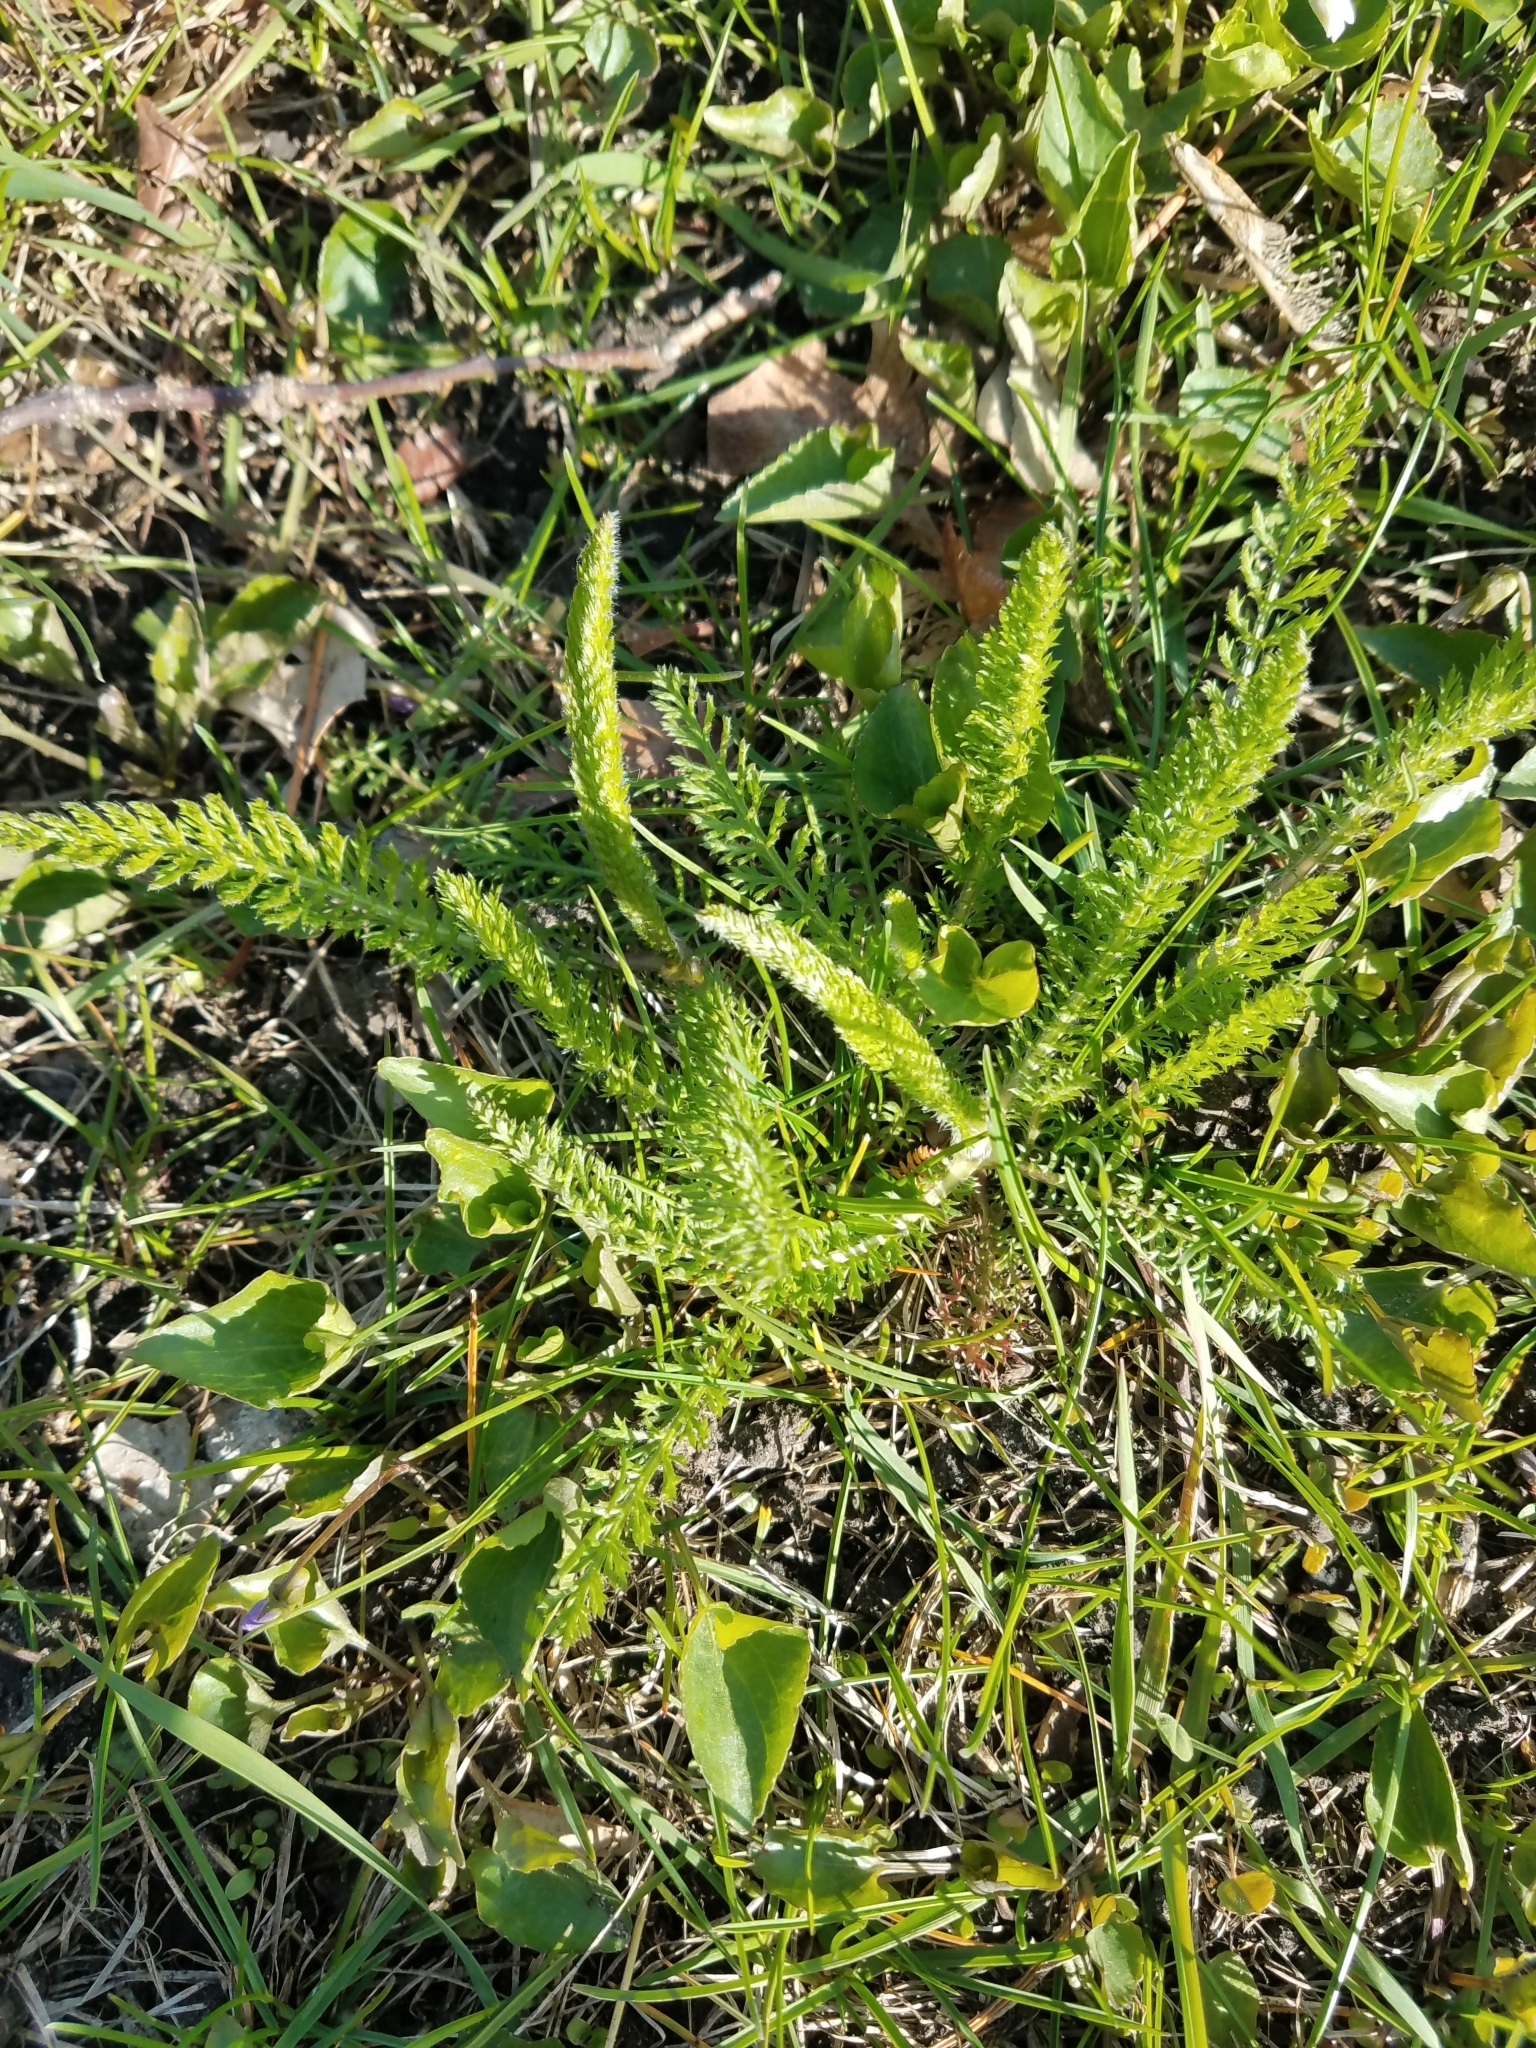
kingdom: Plantae
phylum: Tracheophyta
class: Magnoliopsida
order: Asterales
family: Asteraceae
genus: Achillea
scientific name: Achillea millefolium
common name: Yarrow
